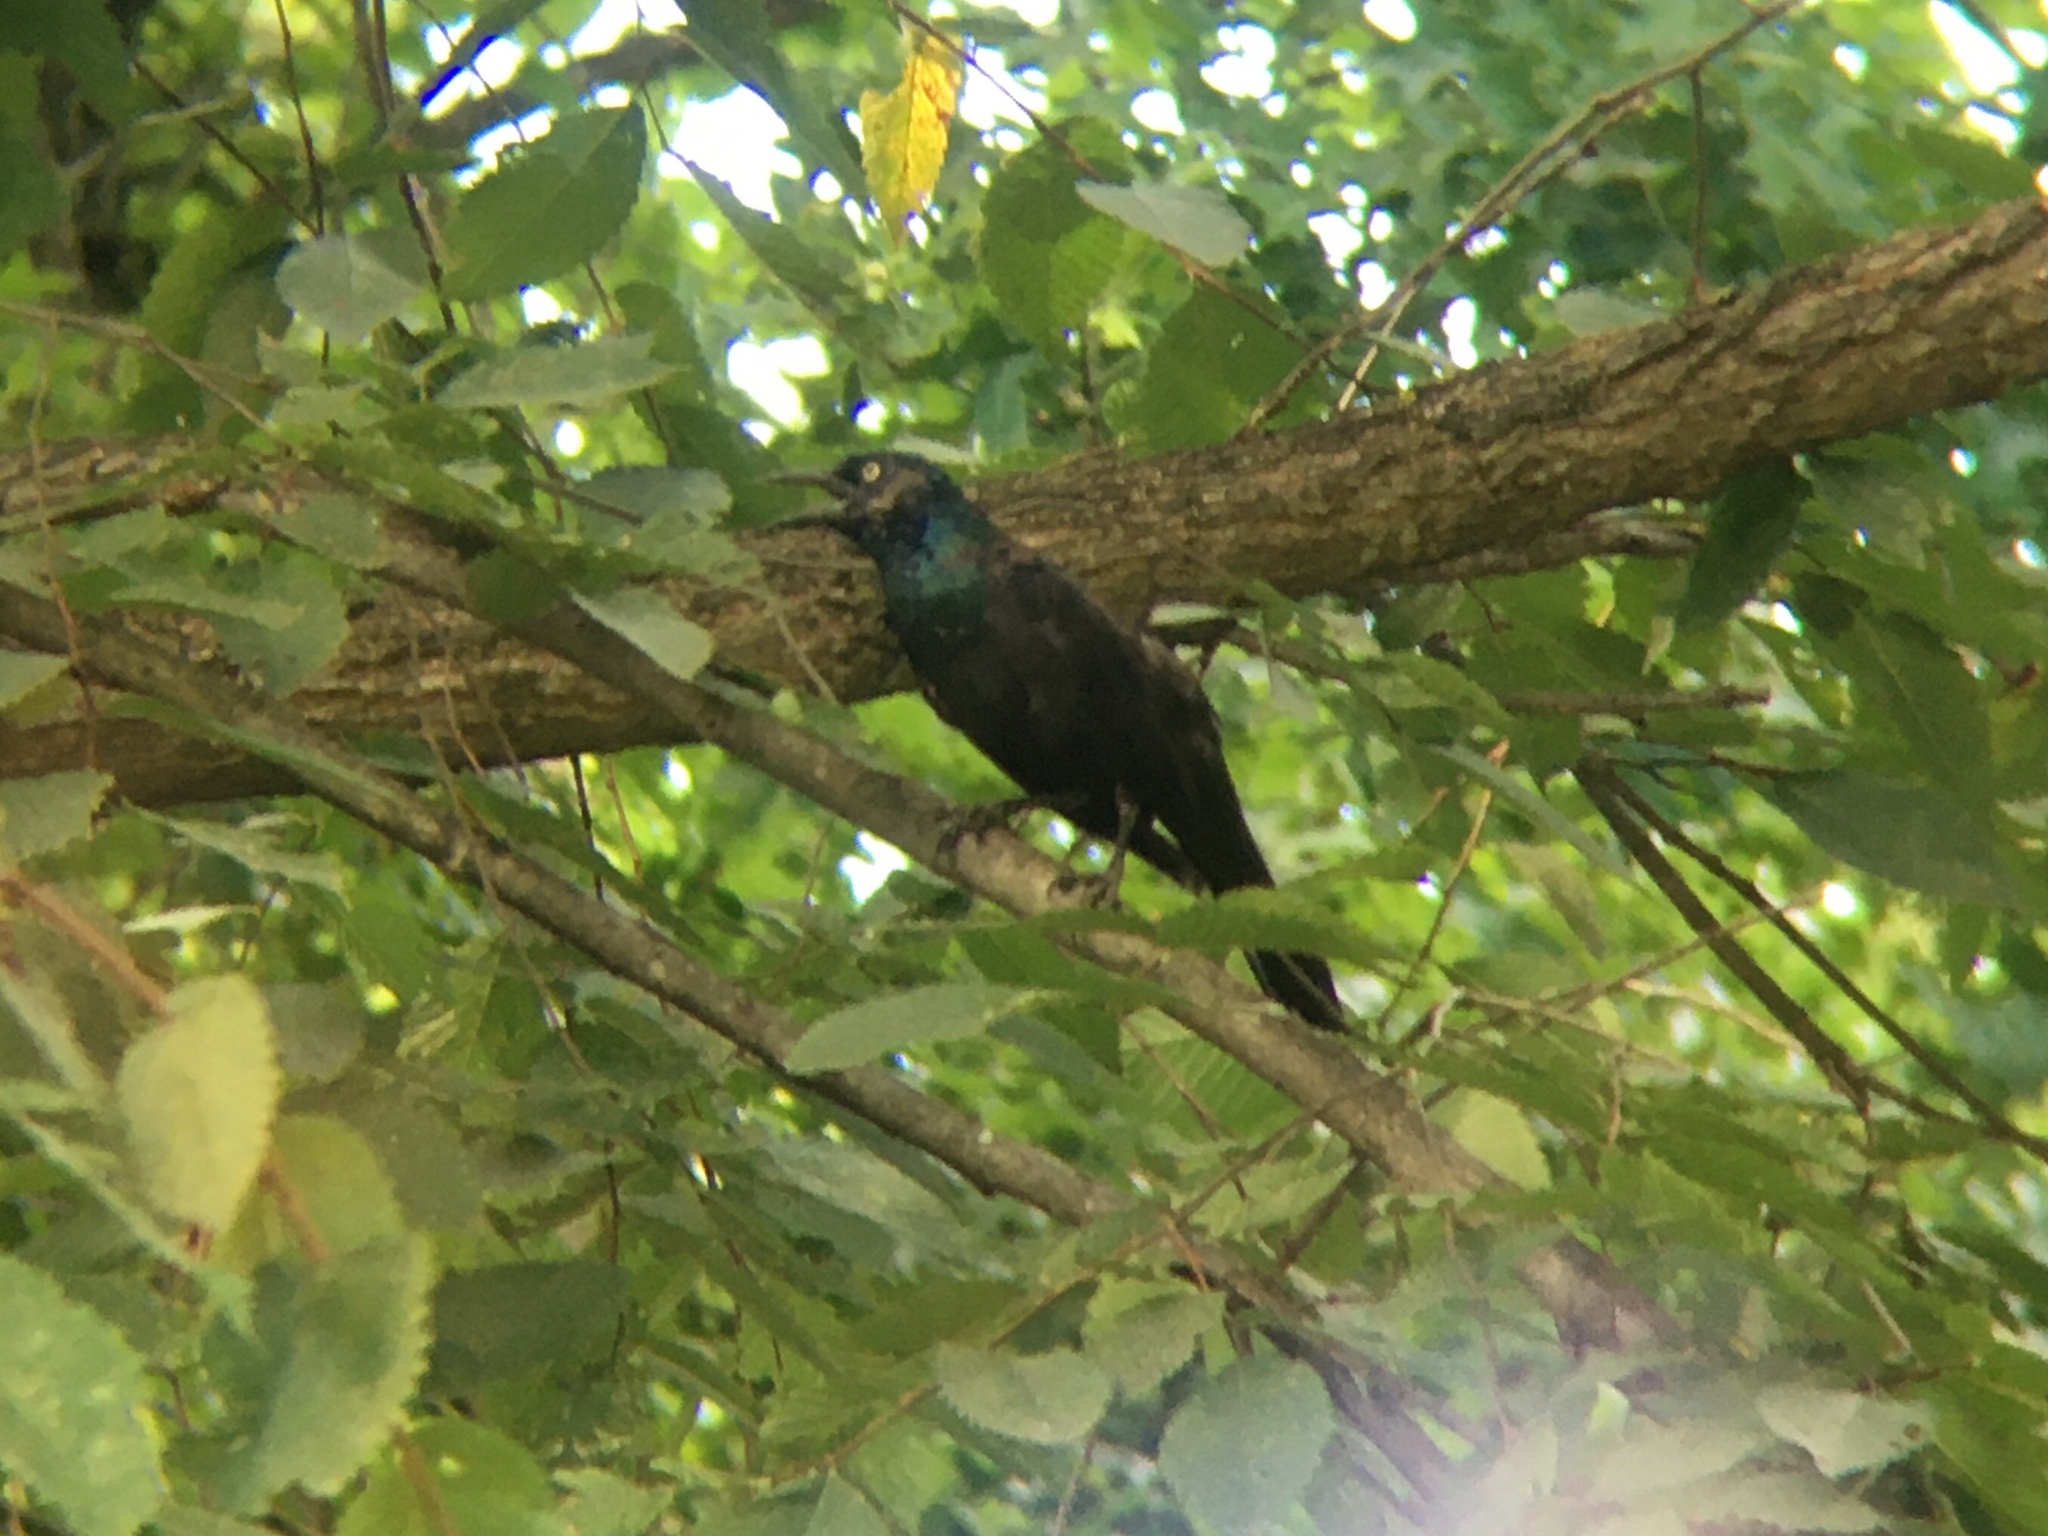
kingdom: Animalia
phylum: Chordata
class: Aves
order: Passeriformes
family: Icteridae
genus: Quiscalus
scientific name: Quiscalus quiscula
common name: Common grackle
